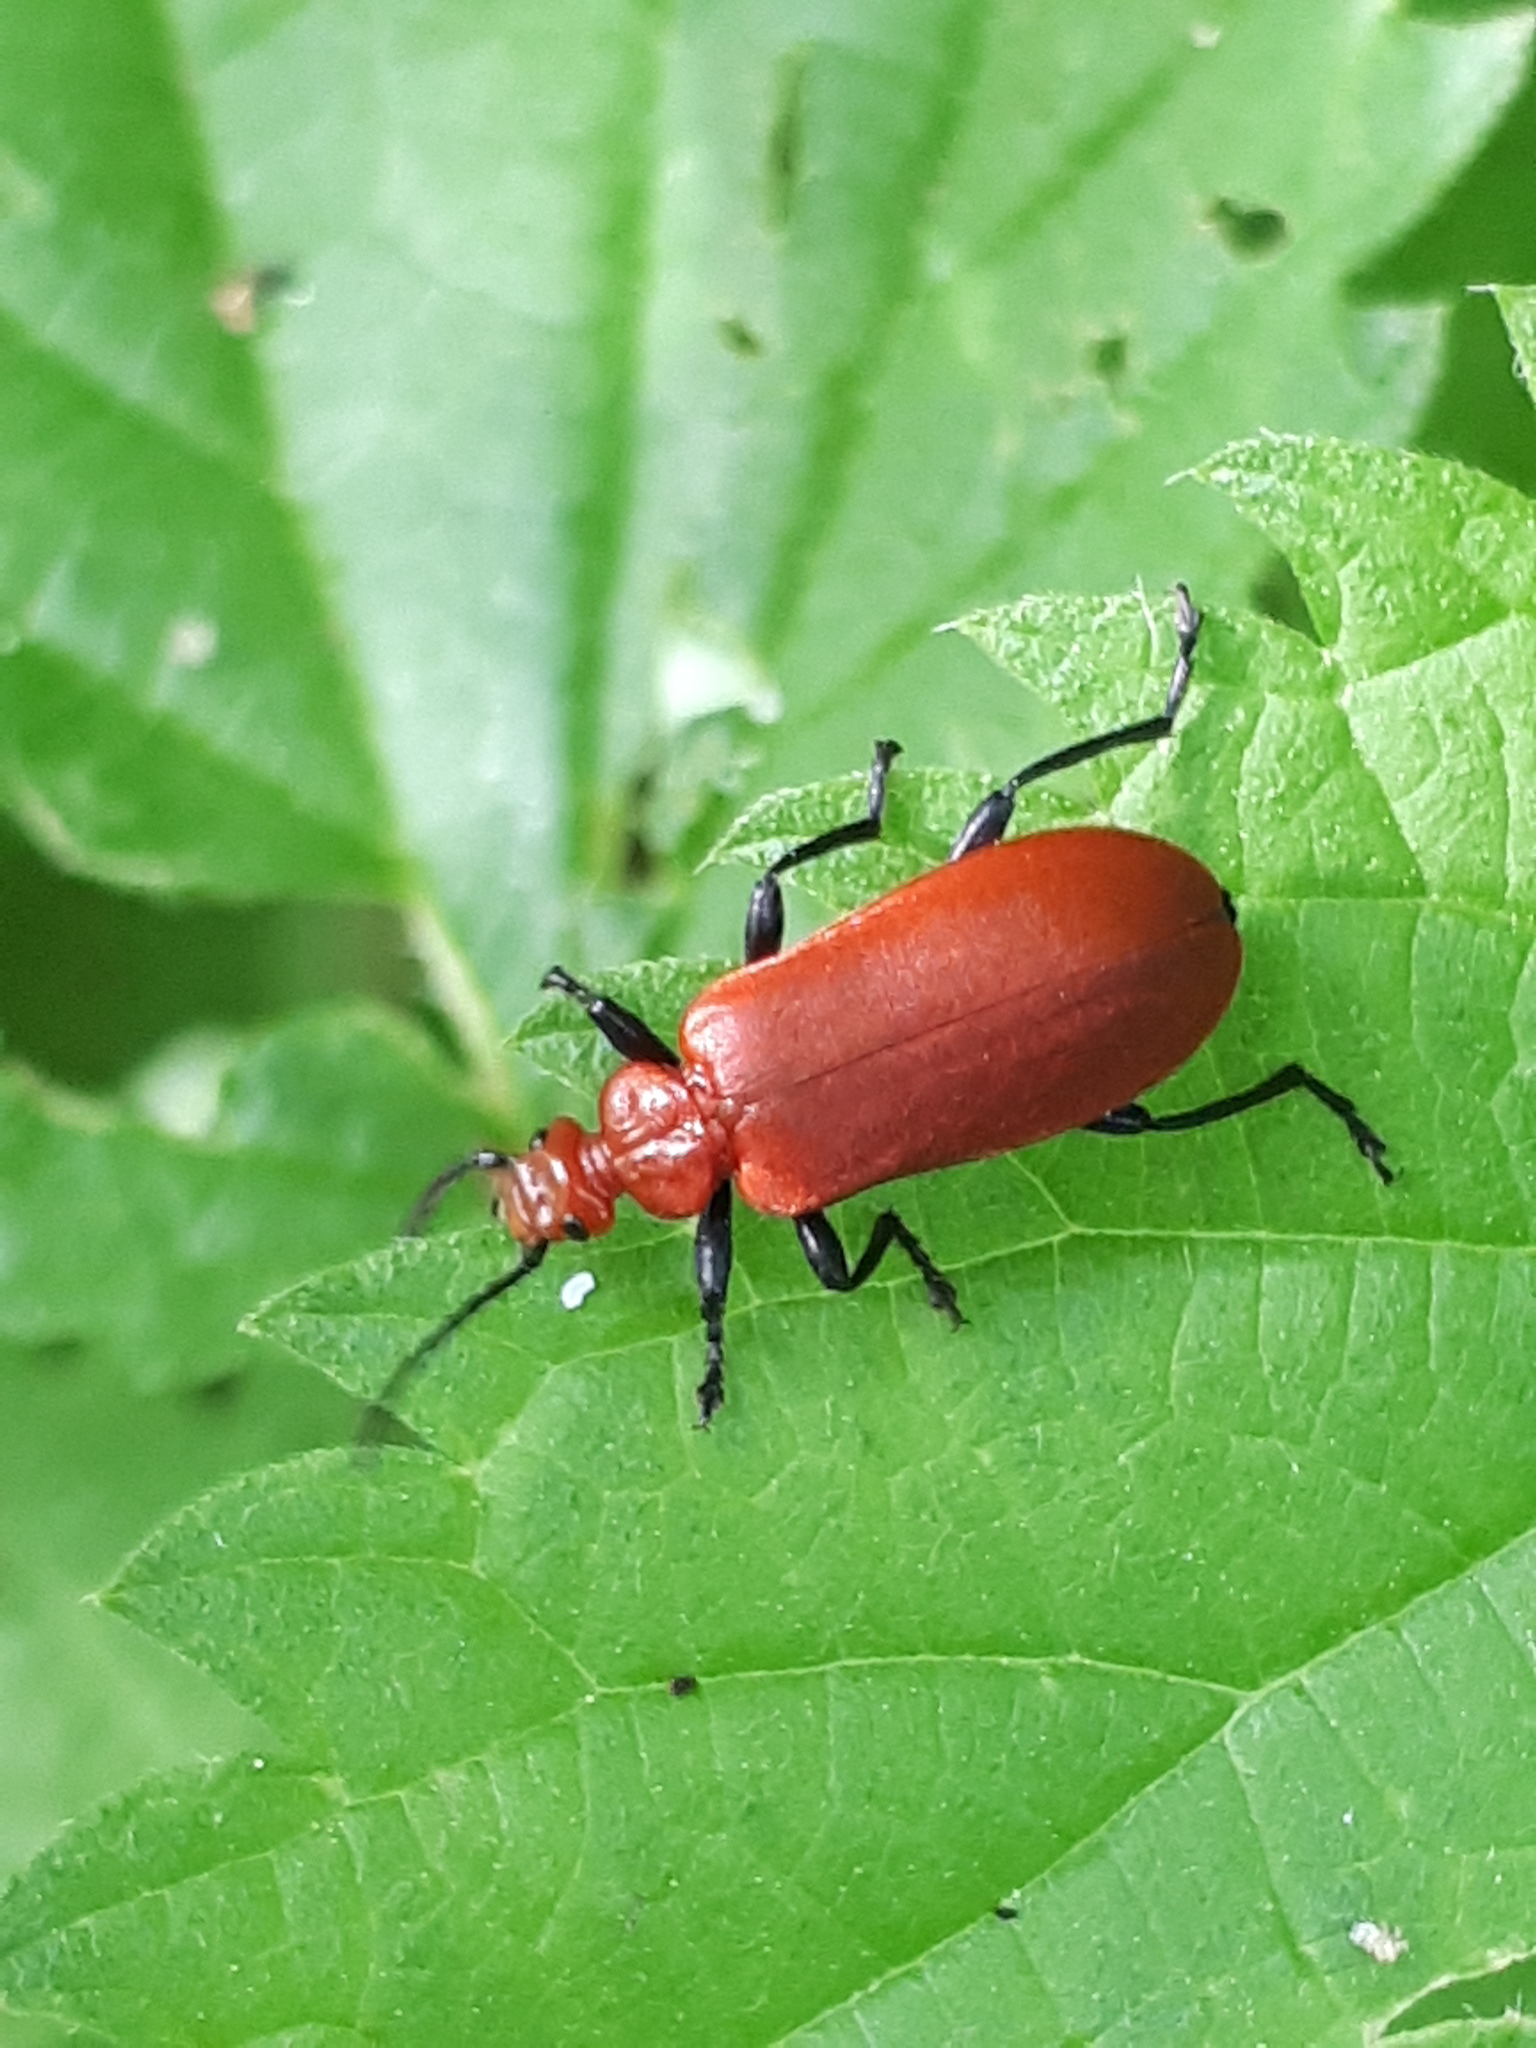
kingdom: Animalia
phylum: Arthropoda
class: Insecta
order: Coleoptera
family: Pyrochroidae
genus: Pyrochroa
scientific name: Pyrochroa serraticornis
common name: Red-headed cardinal beetle
